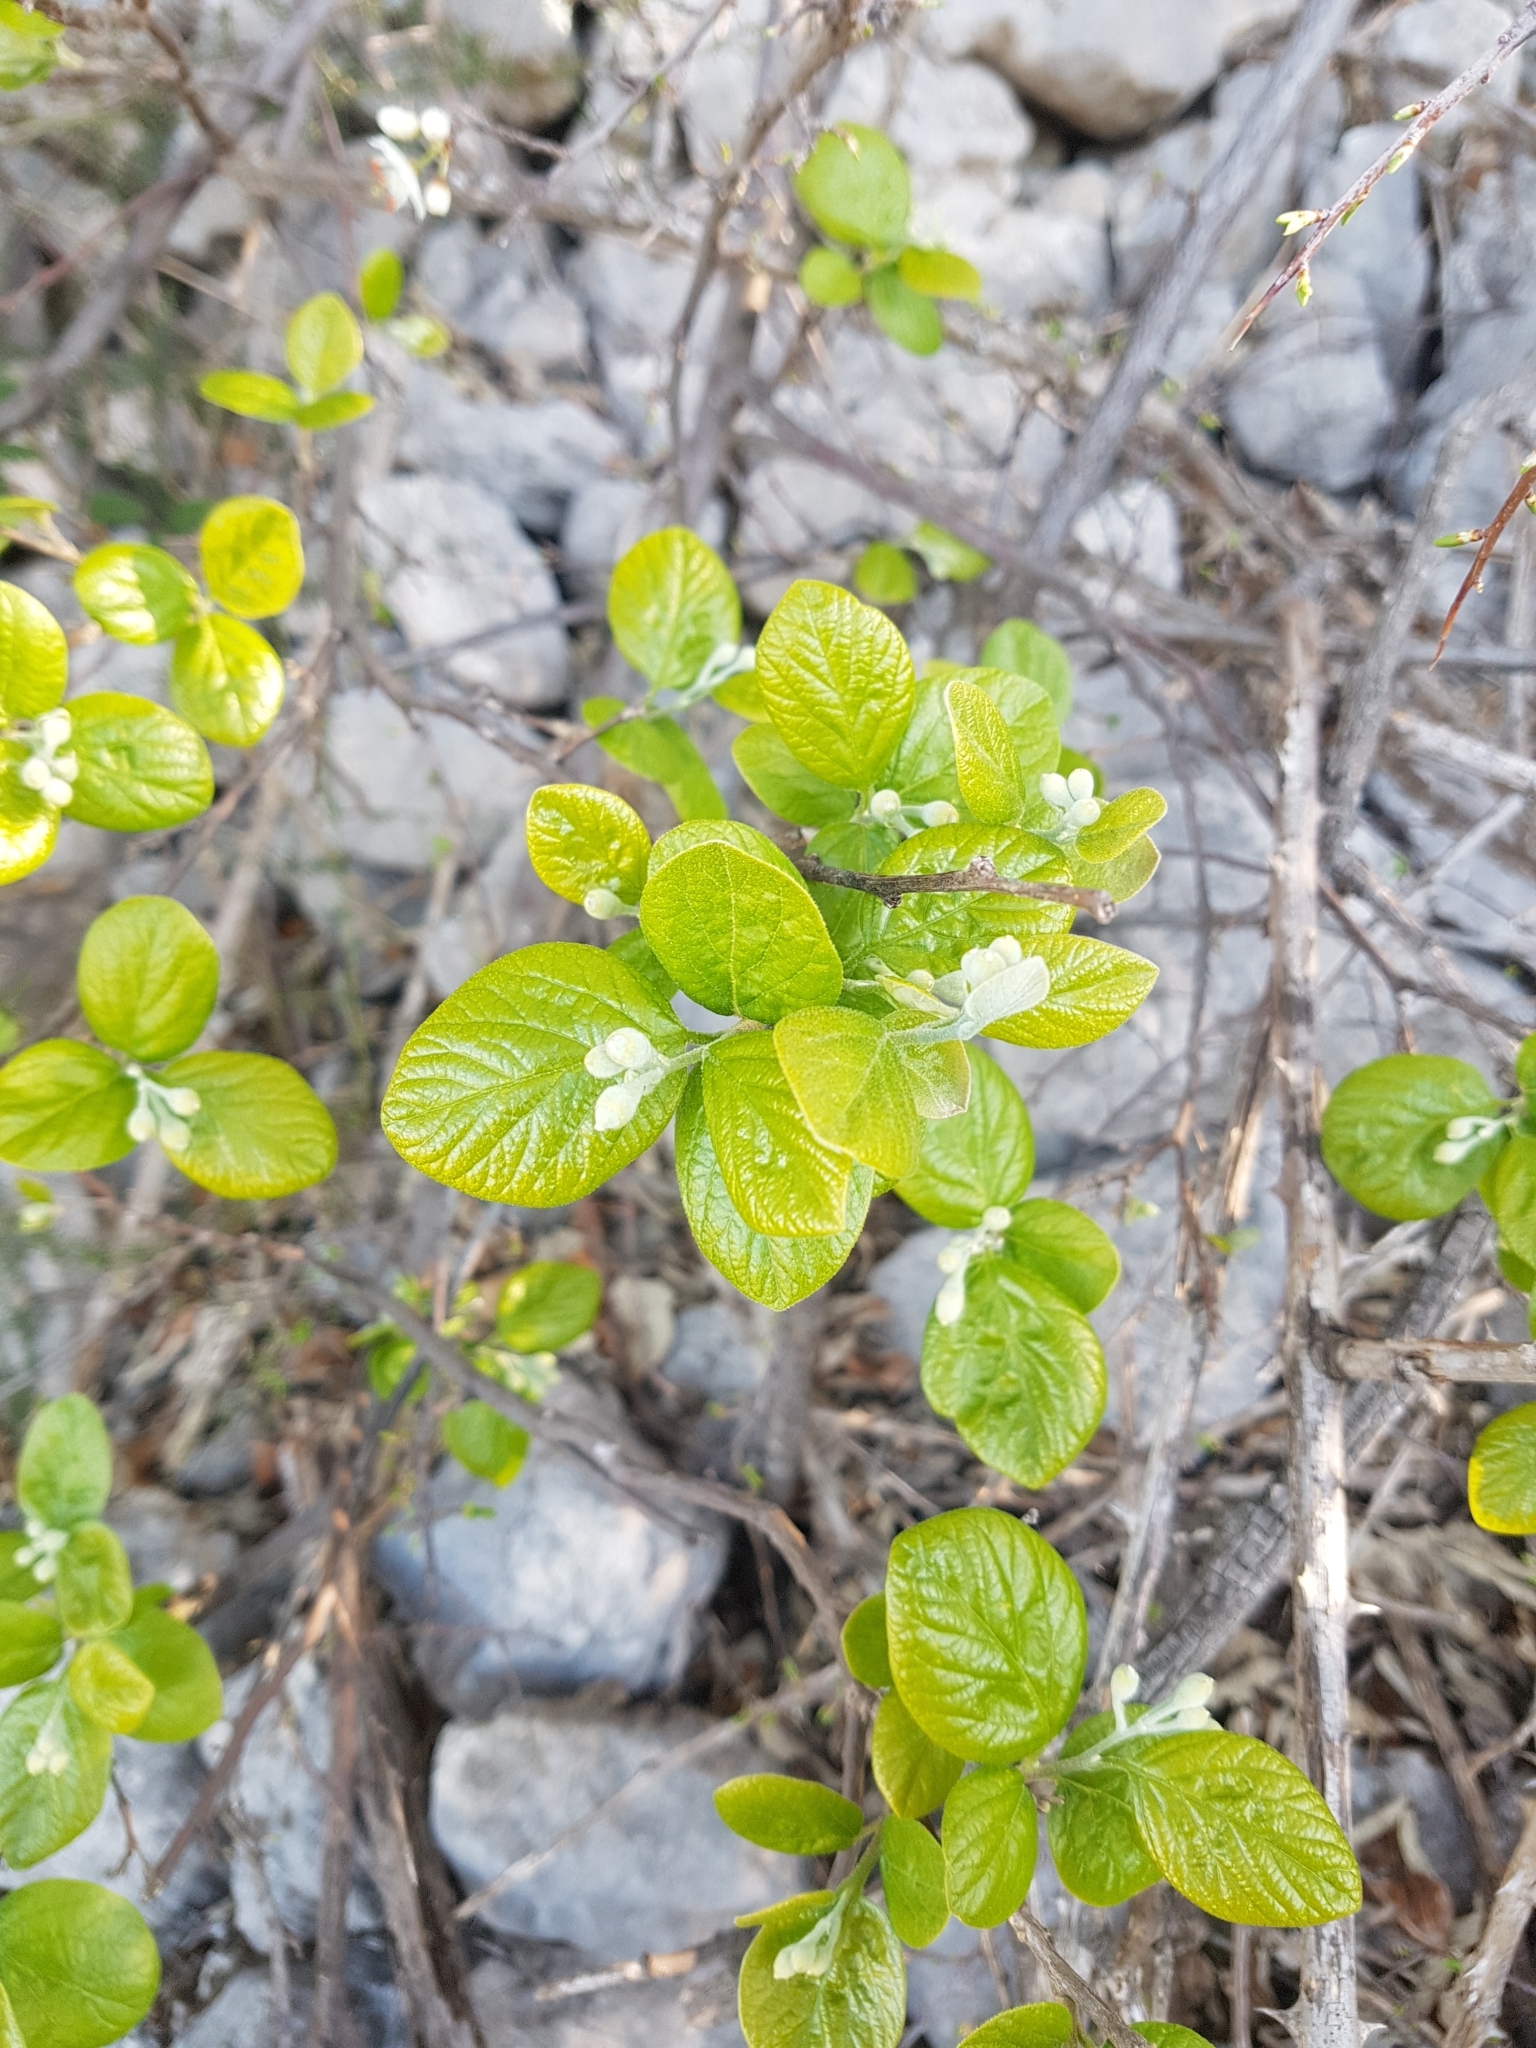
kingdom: Plantae
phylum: Tracheophyta
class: Magnoliopsida
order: Ericales
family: Styracaceae
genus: Styrax
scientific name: Styrax officinalis
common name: Storax
